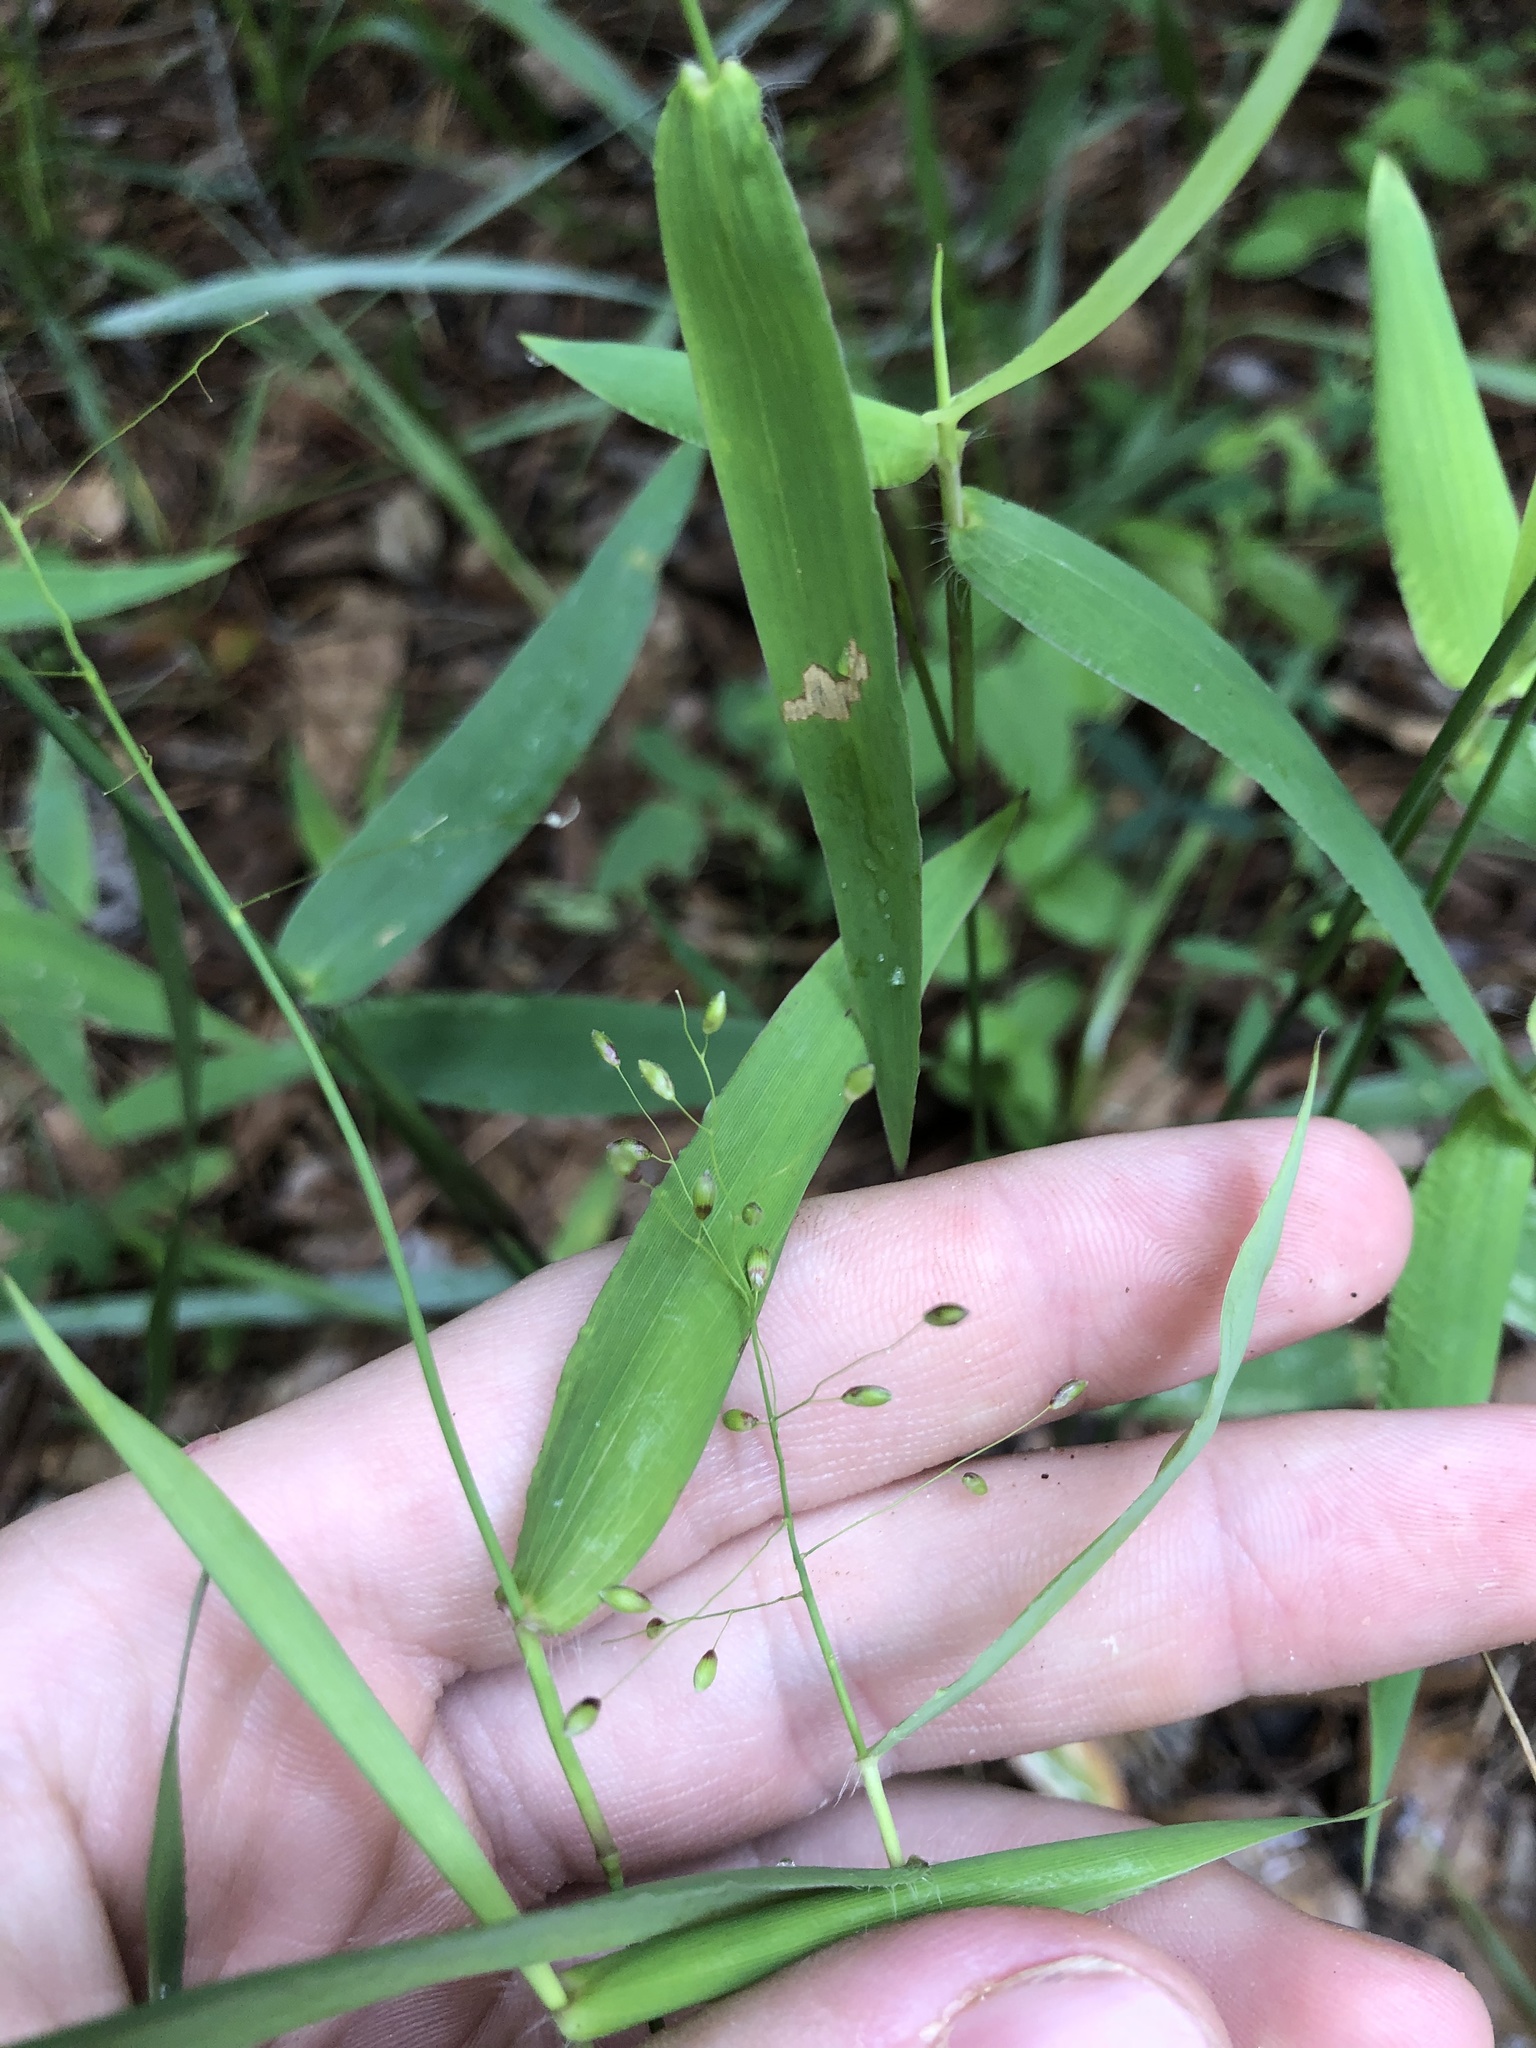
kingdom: Plantae
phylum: Tracheophyta
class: Liliopsida
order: Poales
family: Poaceae
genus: Dichanthelium
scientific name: Dichanthelium equilaterale
